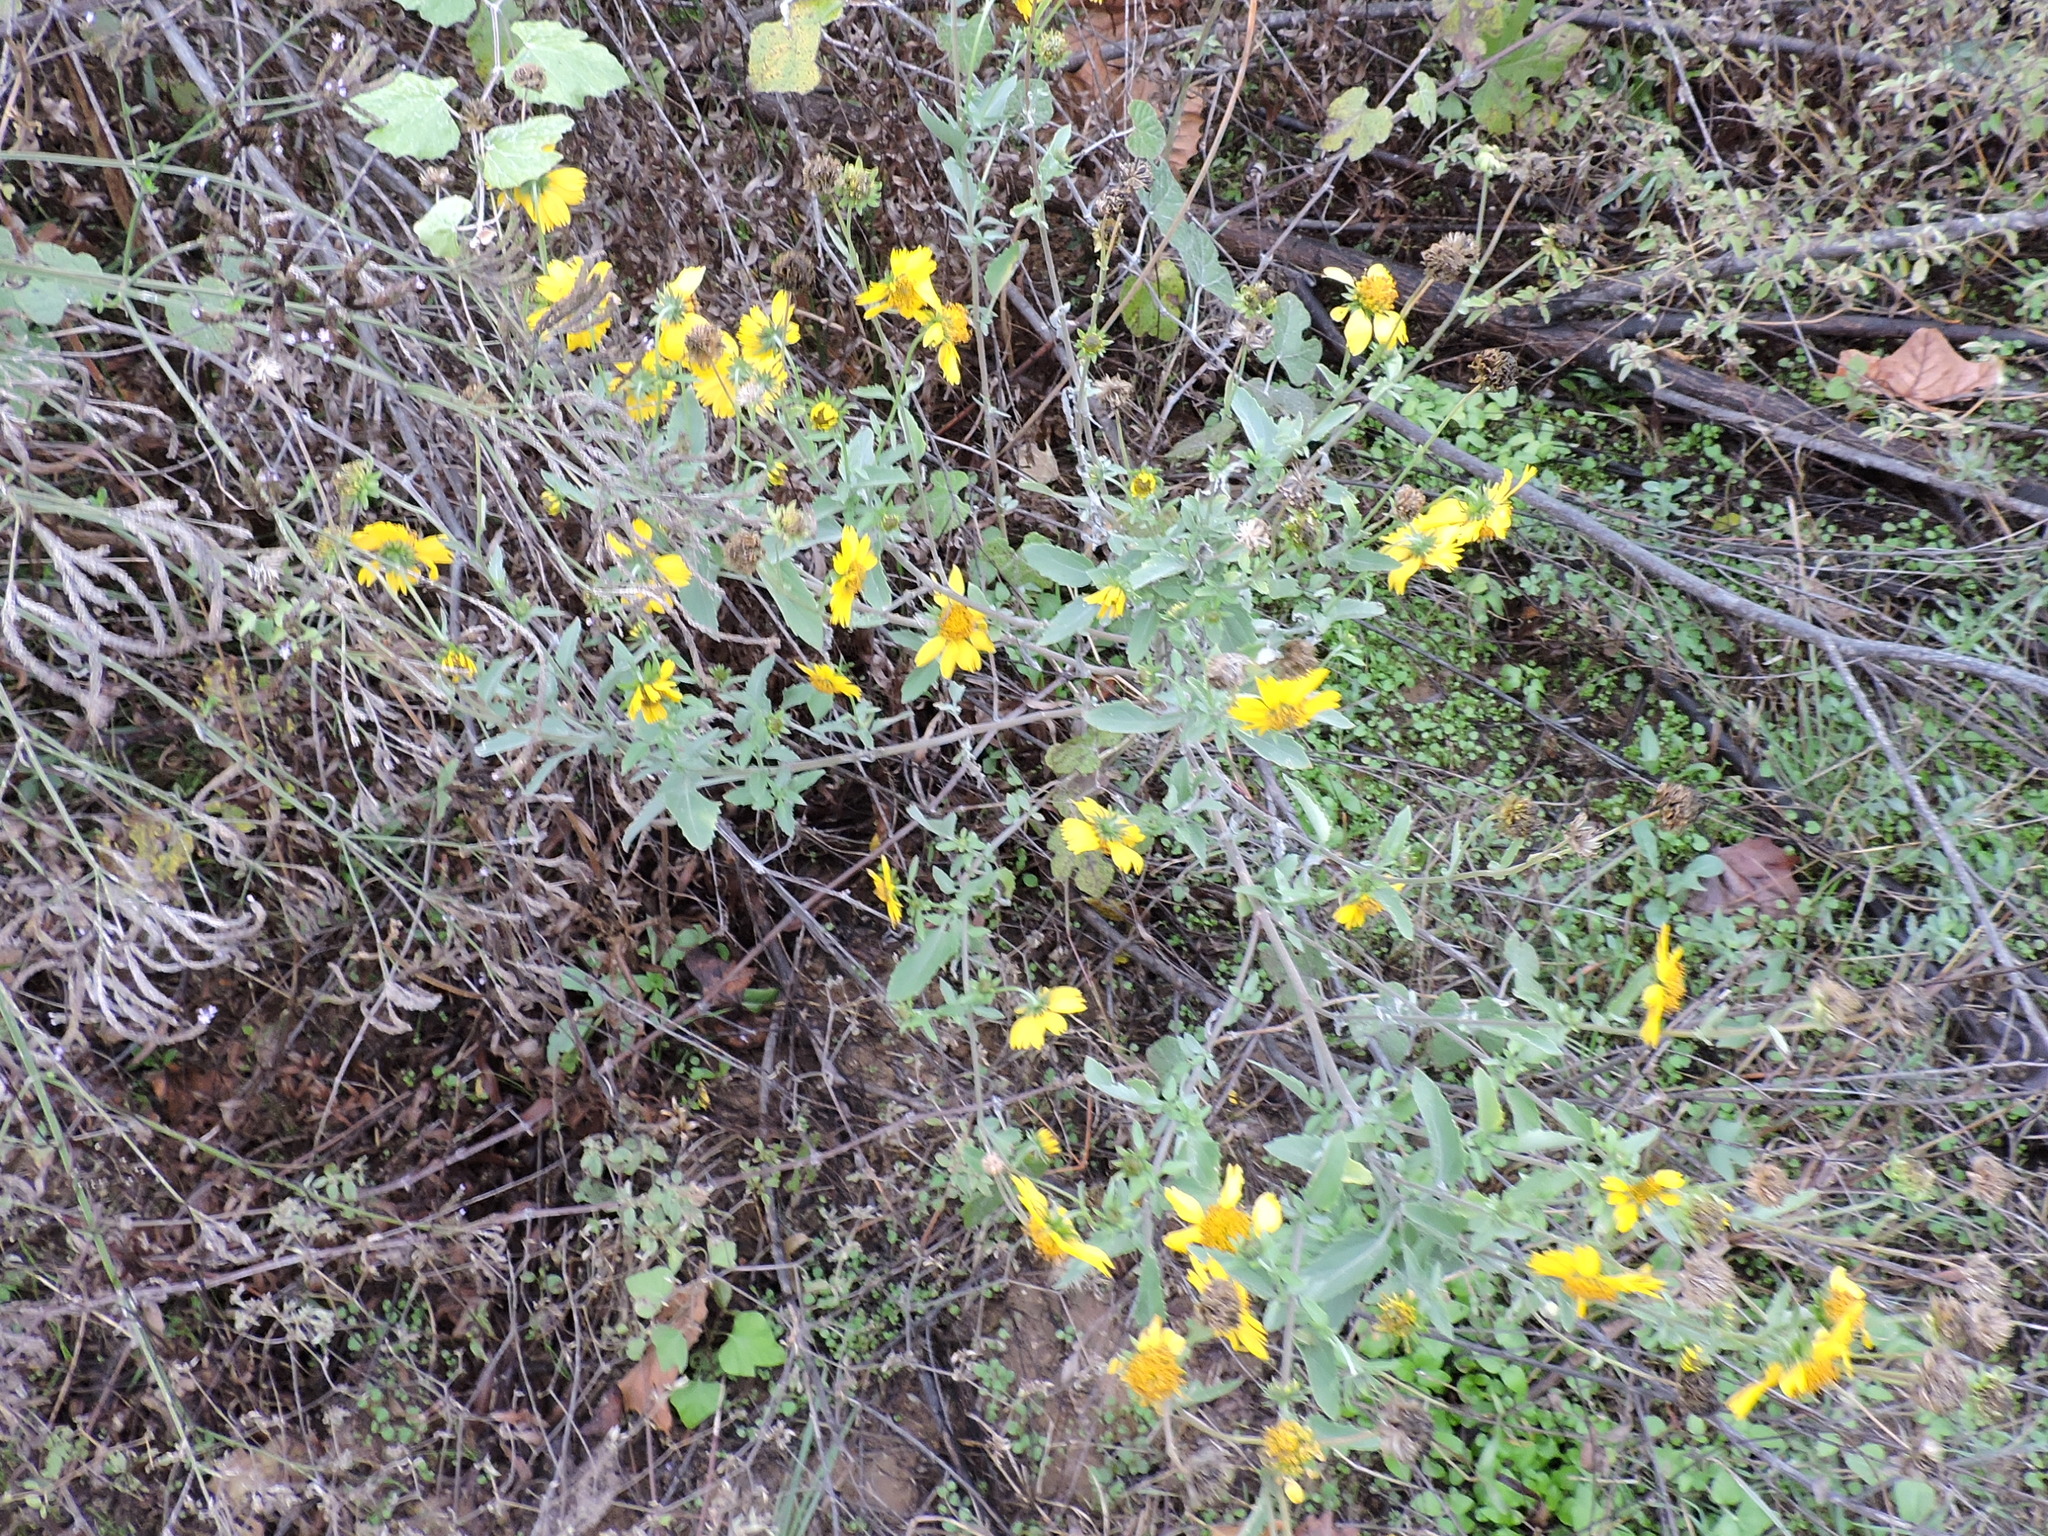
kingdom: Plantae
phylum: Tracheophyta
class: Magnoliopsida
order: Asterales
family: Asteraceae
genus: Verbesina
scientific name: Verbesina encelioides
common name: Golden crownbeard
